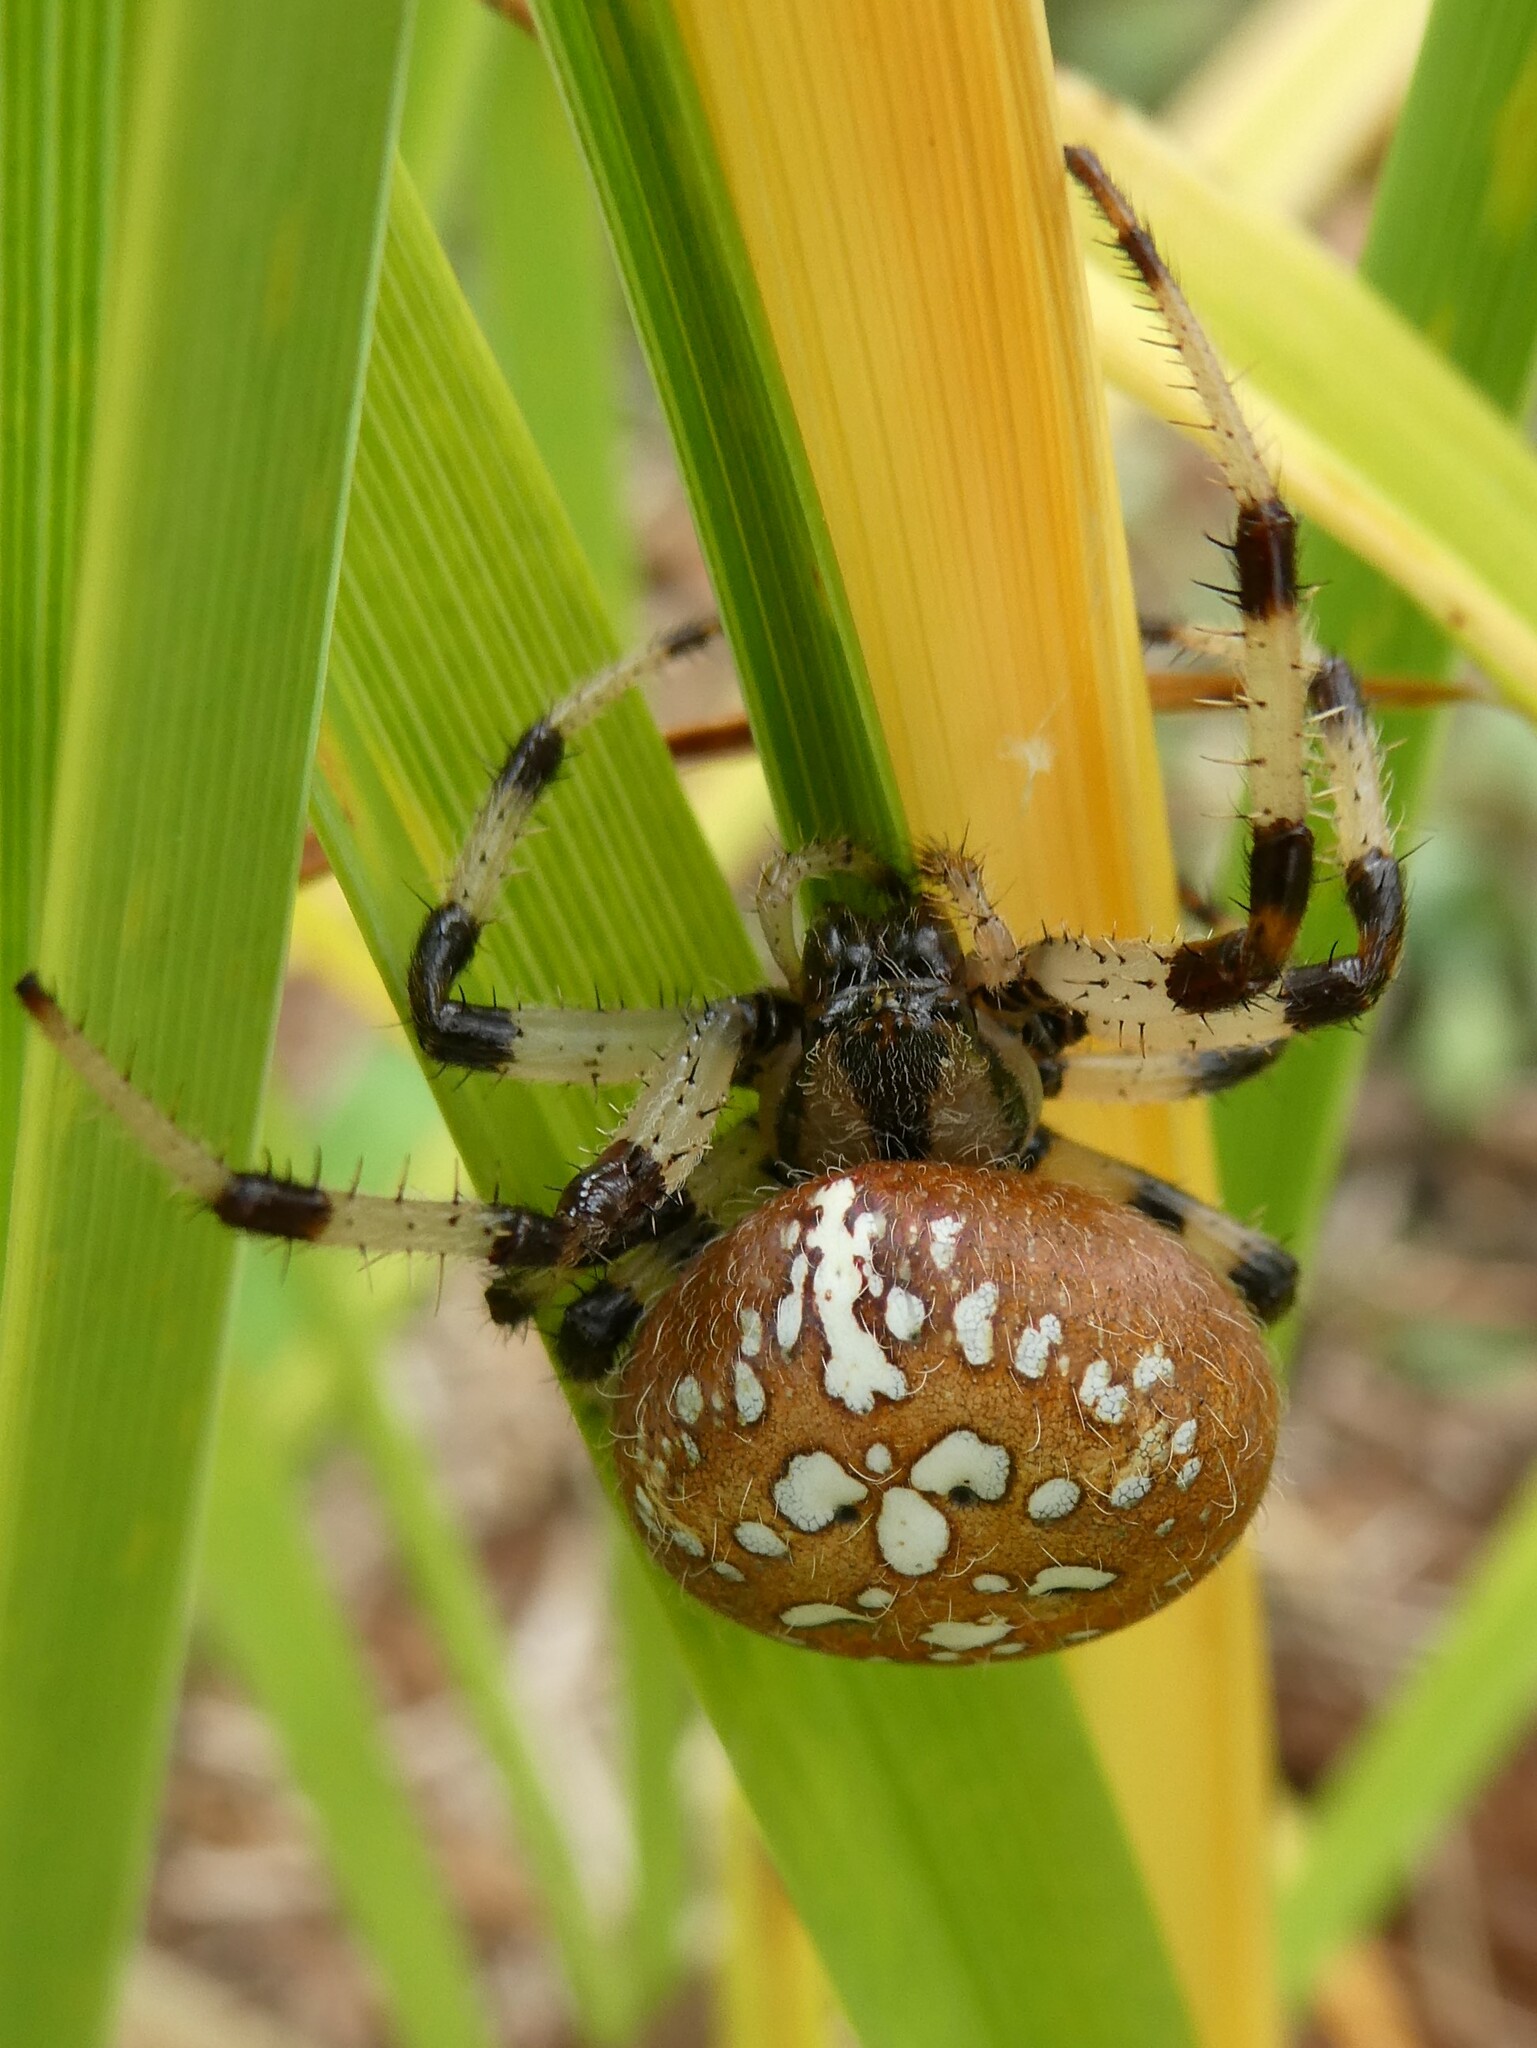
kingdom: Animalia
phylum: Arthropoda
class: Arachnida
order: Araneae
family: Araneidae
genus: Araneus
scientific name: Araneus trifolium
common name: Shamrock orbweaver
